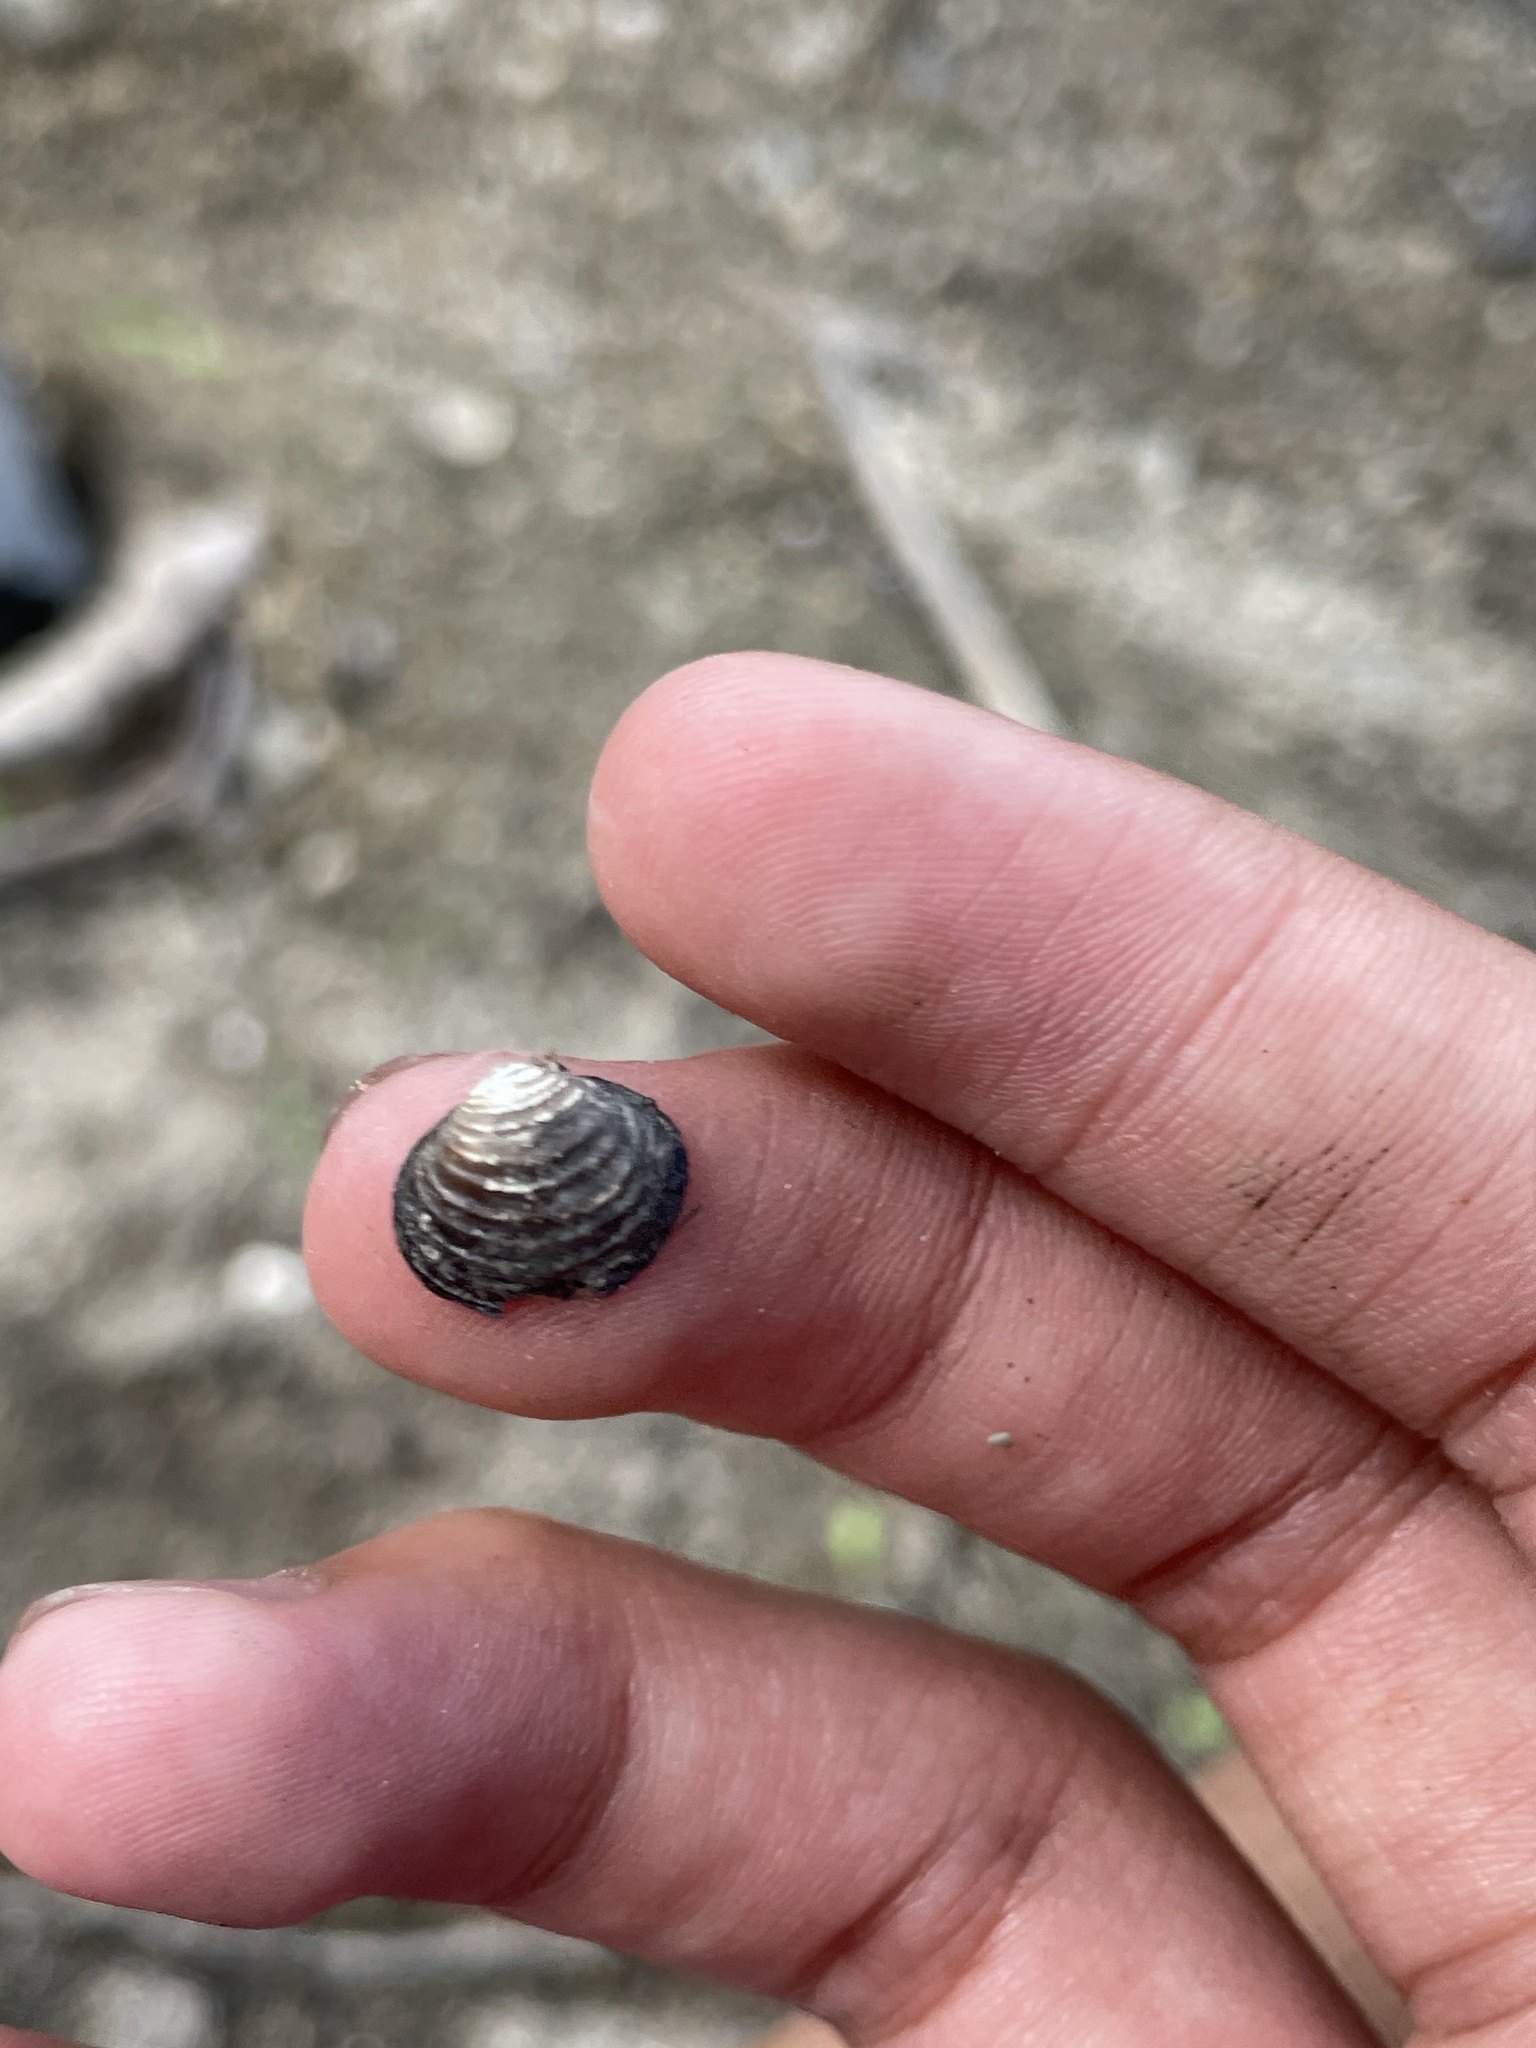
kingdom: Animalia
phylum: Mollusca
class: Bivalvia
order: Venerida
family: Cyrenidae
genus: Corbicula
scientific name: Corbicula fluminea
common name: Asian clam
